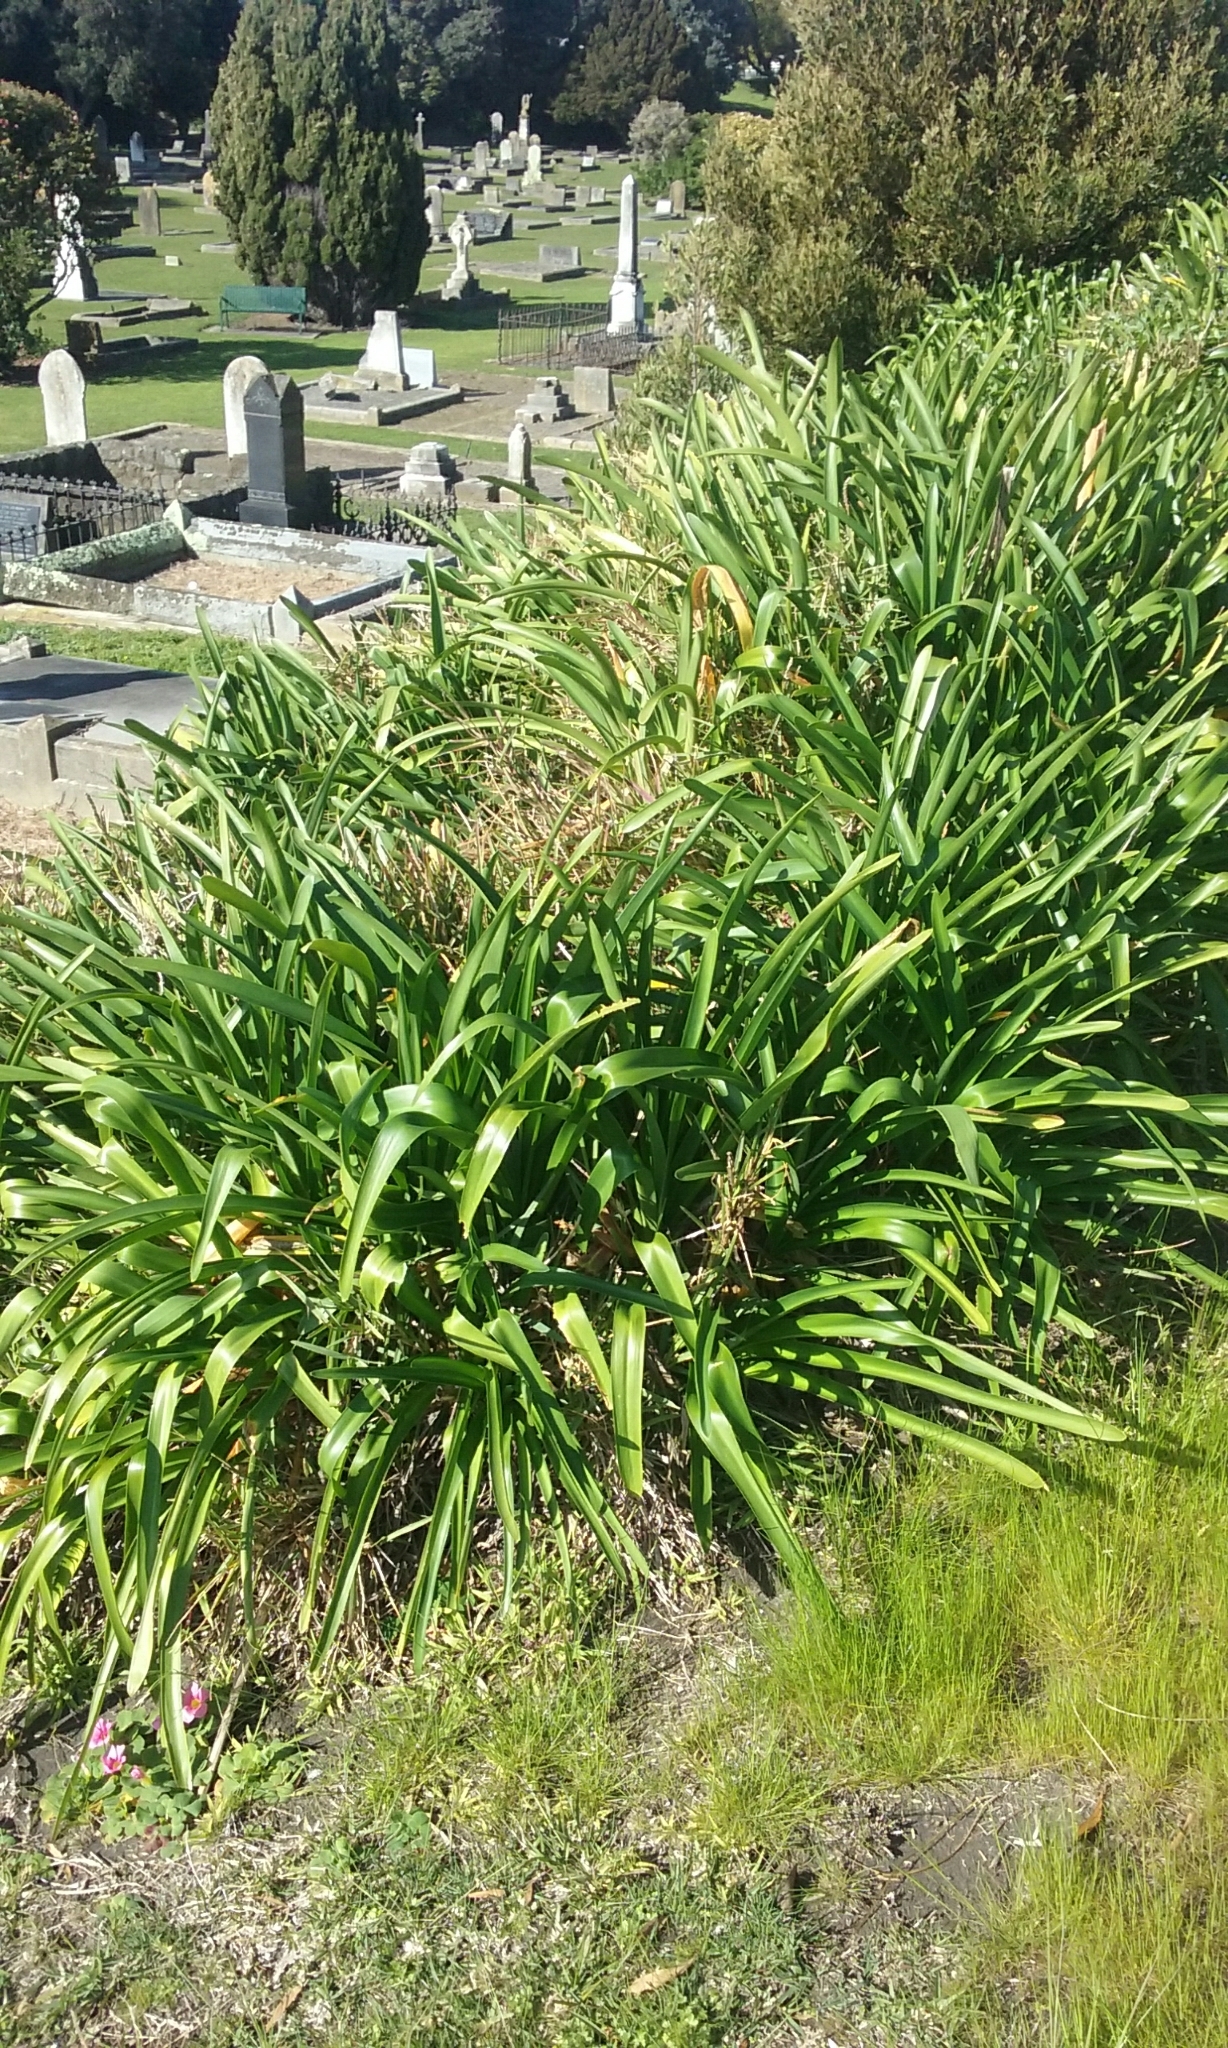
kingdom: Plantae
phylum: Tracheophyta
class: Liliopsida
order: Asparagales
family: Amaryllidaceae
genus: Agapanthus
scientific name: Agapanthus praecox
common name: African-lily
